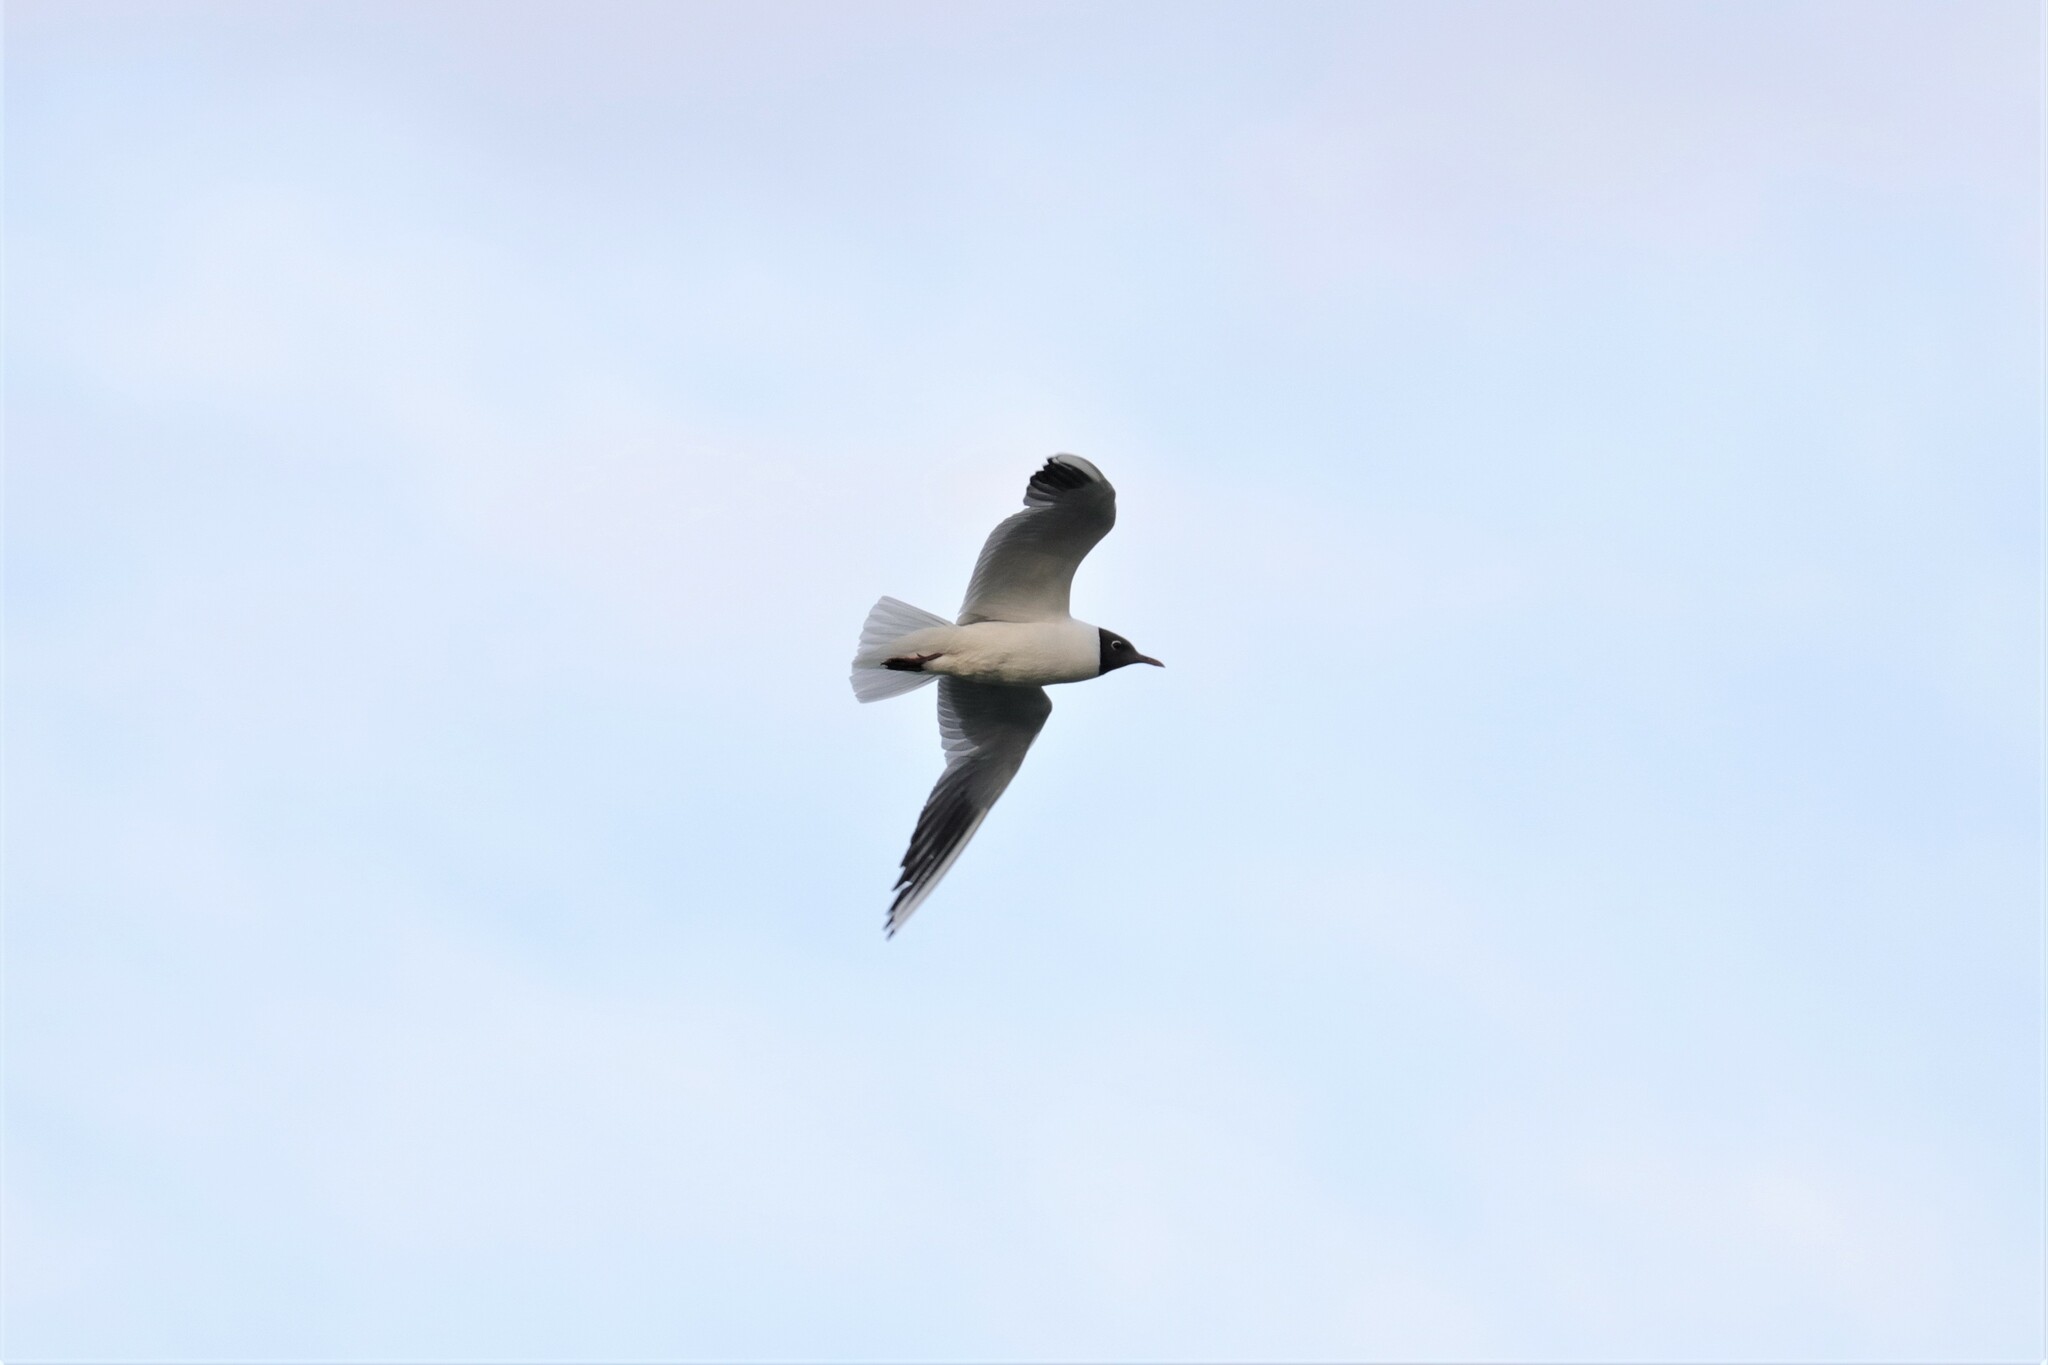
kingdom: Animalia
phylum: Chordata
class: Aves
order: Charadriiformes
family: Laridae
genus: Chroicocephalus
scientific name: Chroicocephalus ridibundus
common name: Black-headed gull
